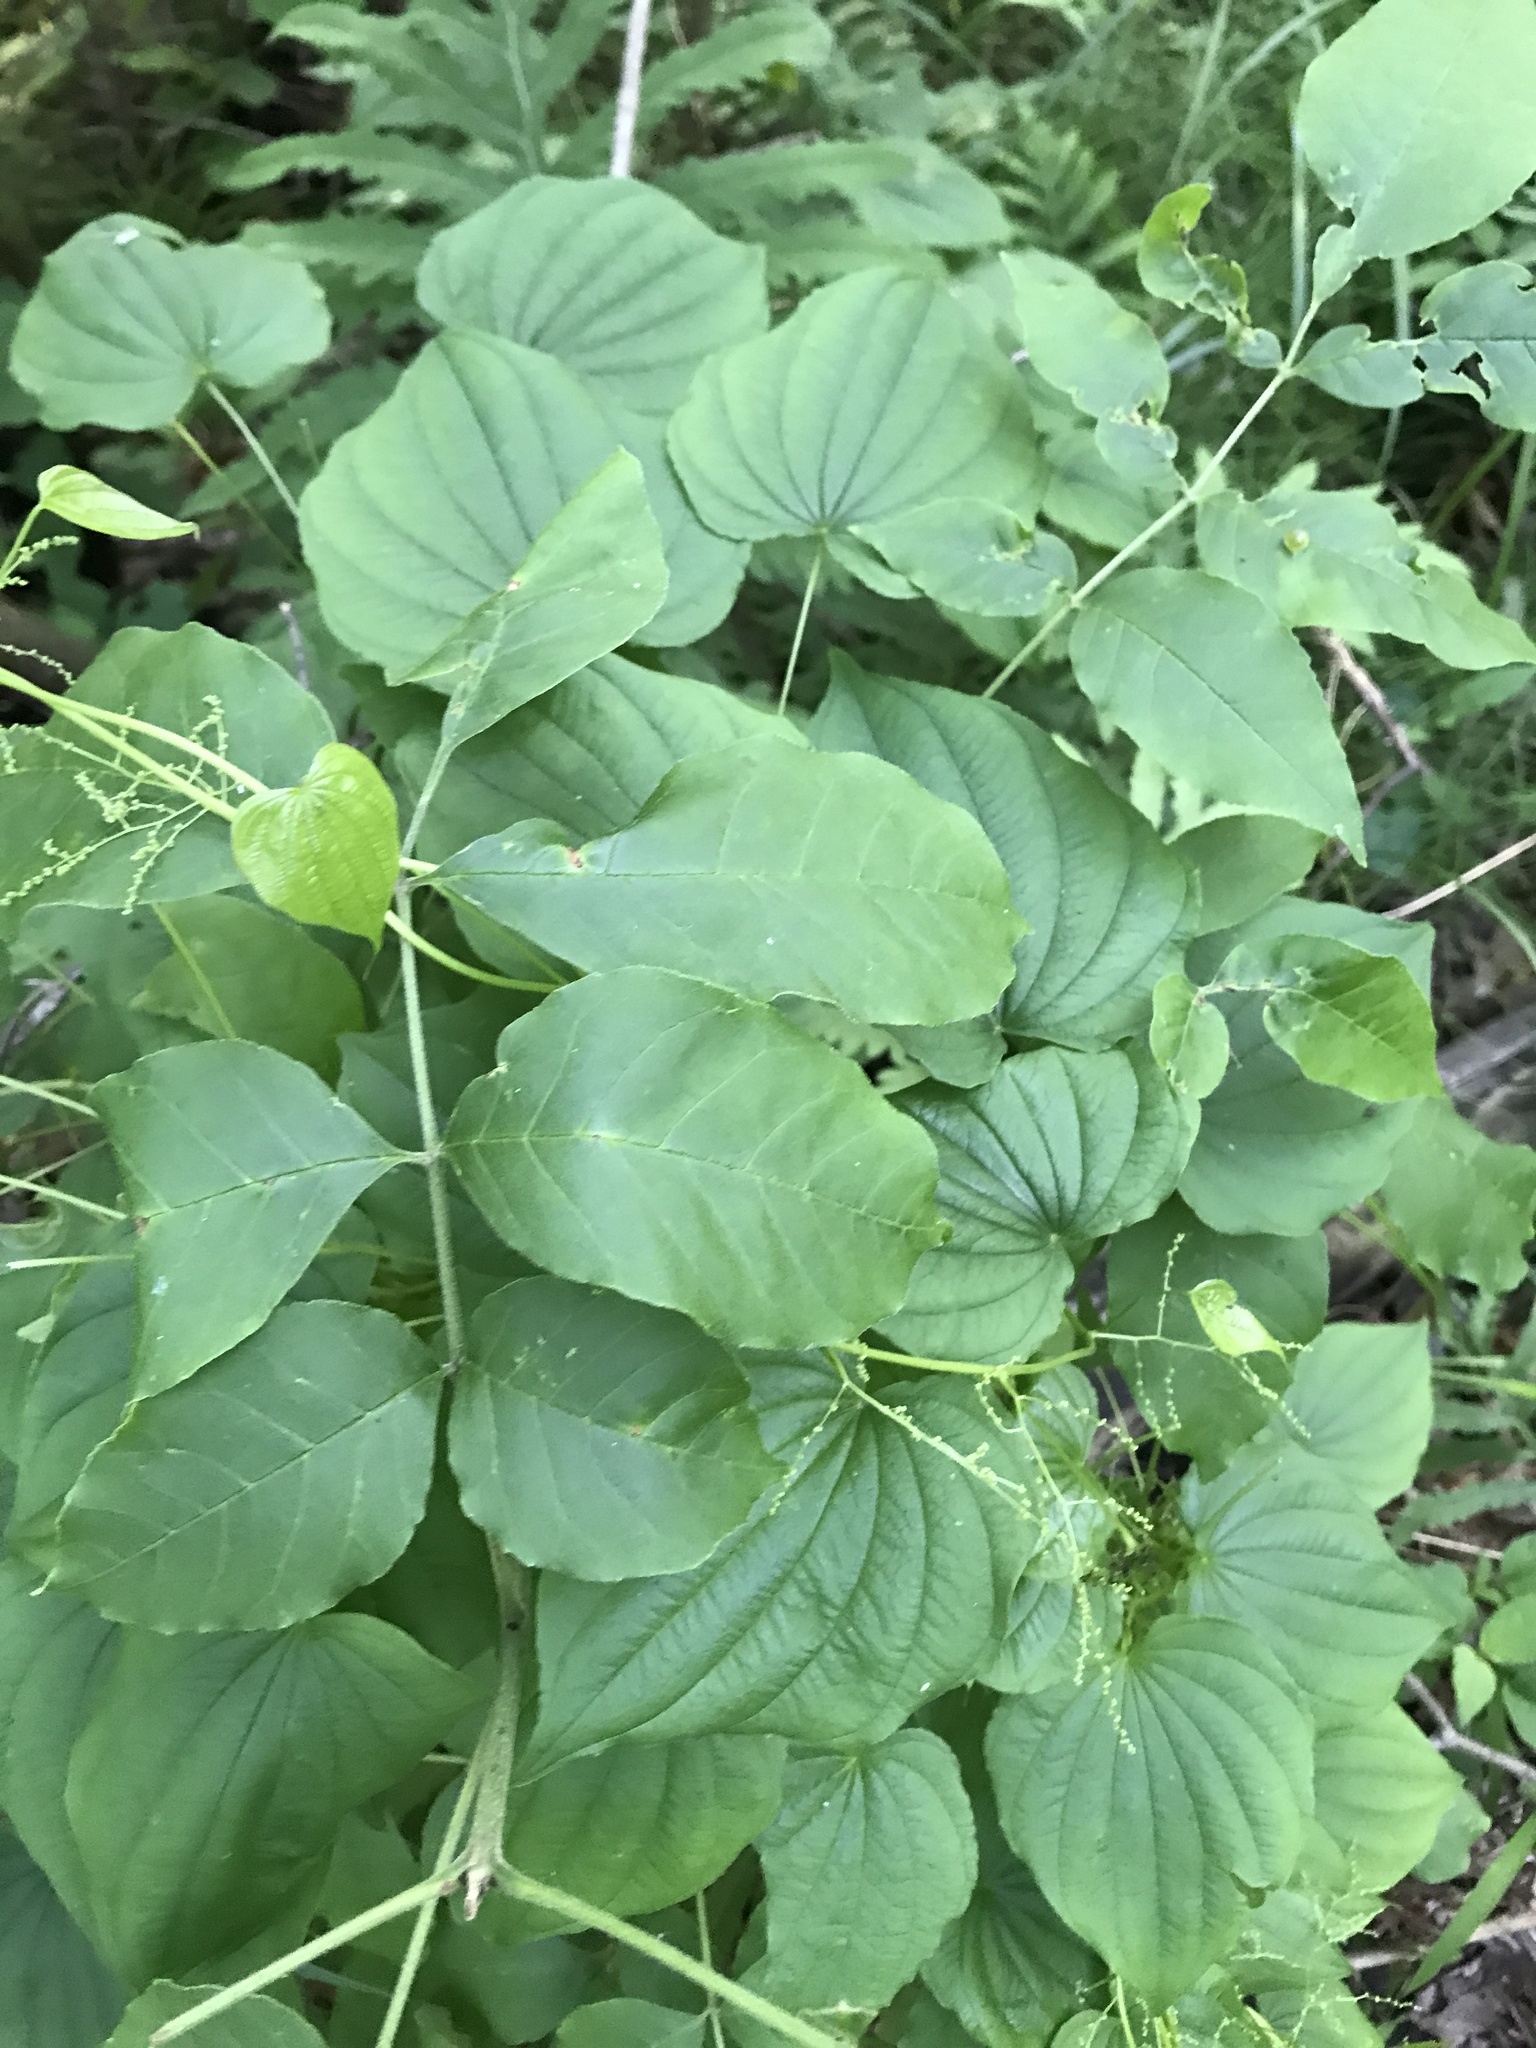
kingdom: Plantae
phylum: Tracheophyta
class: Liliopsida
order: Dioscoreales
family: Dioscoreaceae
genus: Dioscorea
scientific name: Dioscorea villosa
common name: Wild yam
